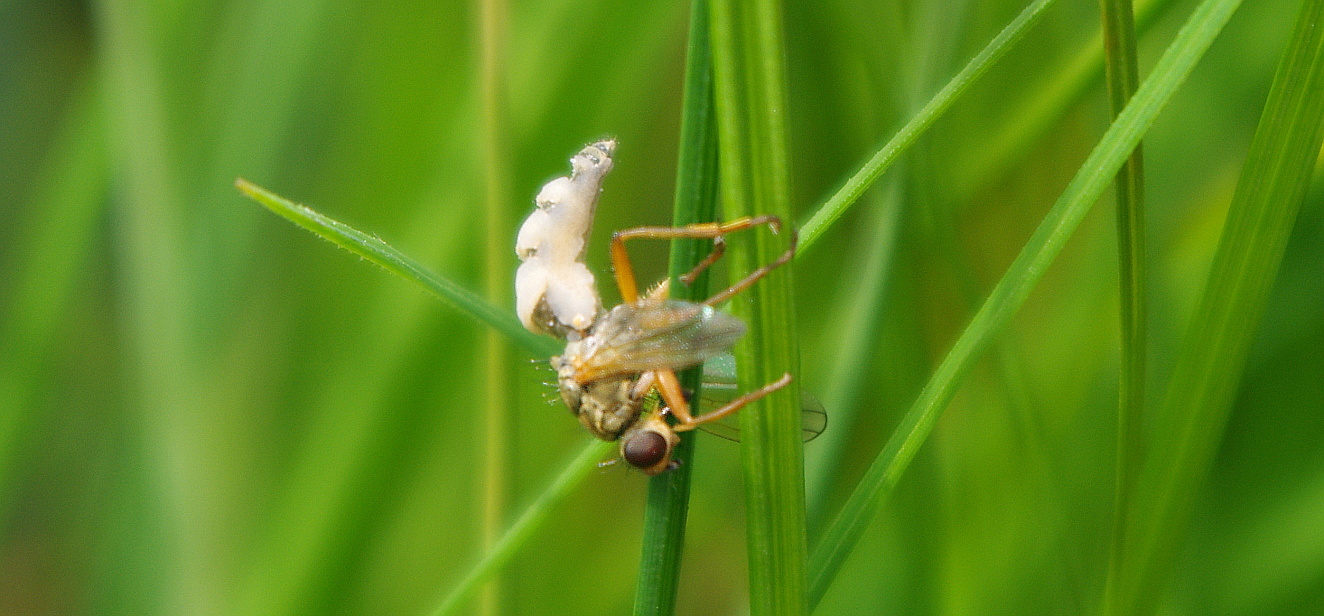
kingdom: Fungi
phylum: Entomophthoromycota
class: Entomophthoromycetes
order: Entomophthorales
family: Entomophthoraceae
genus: Entomophthora
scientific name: Entomophthora
